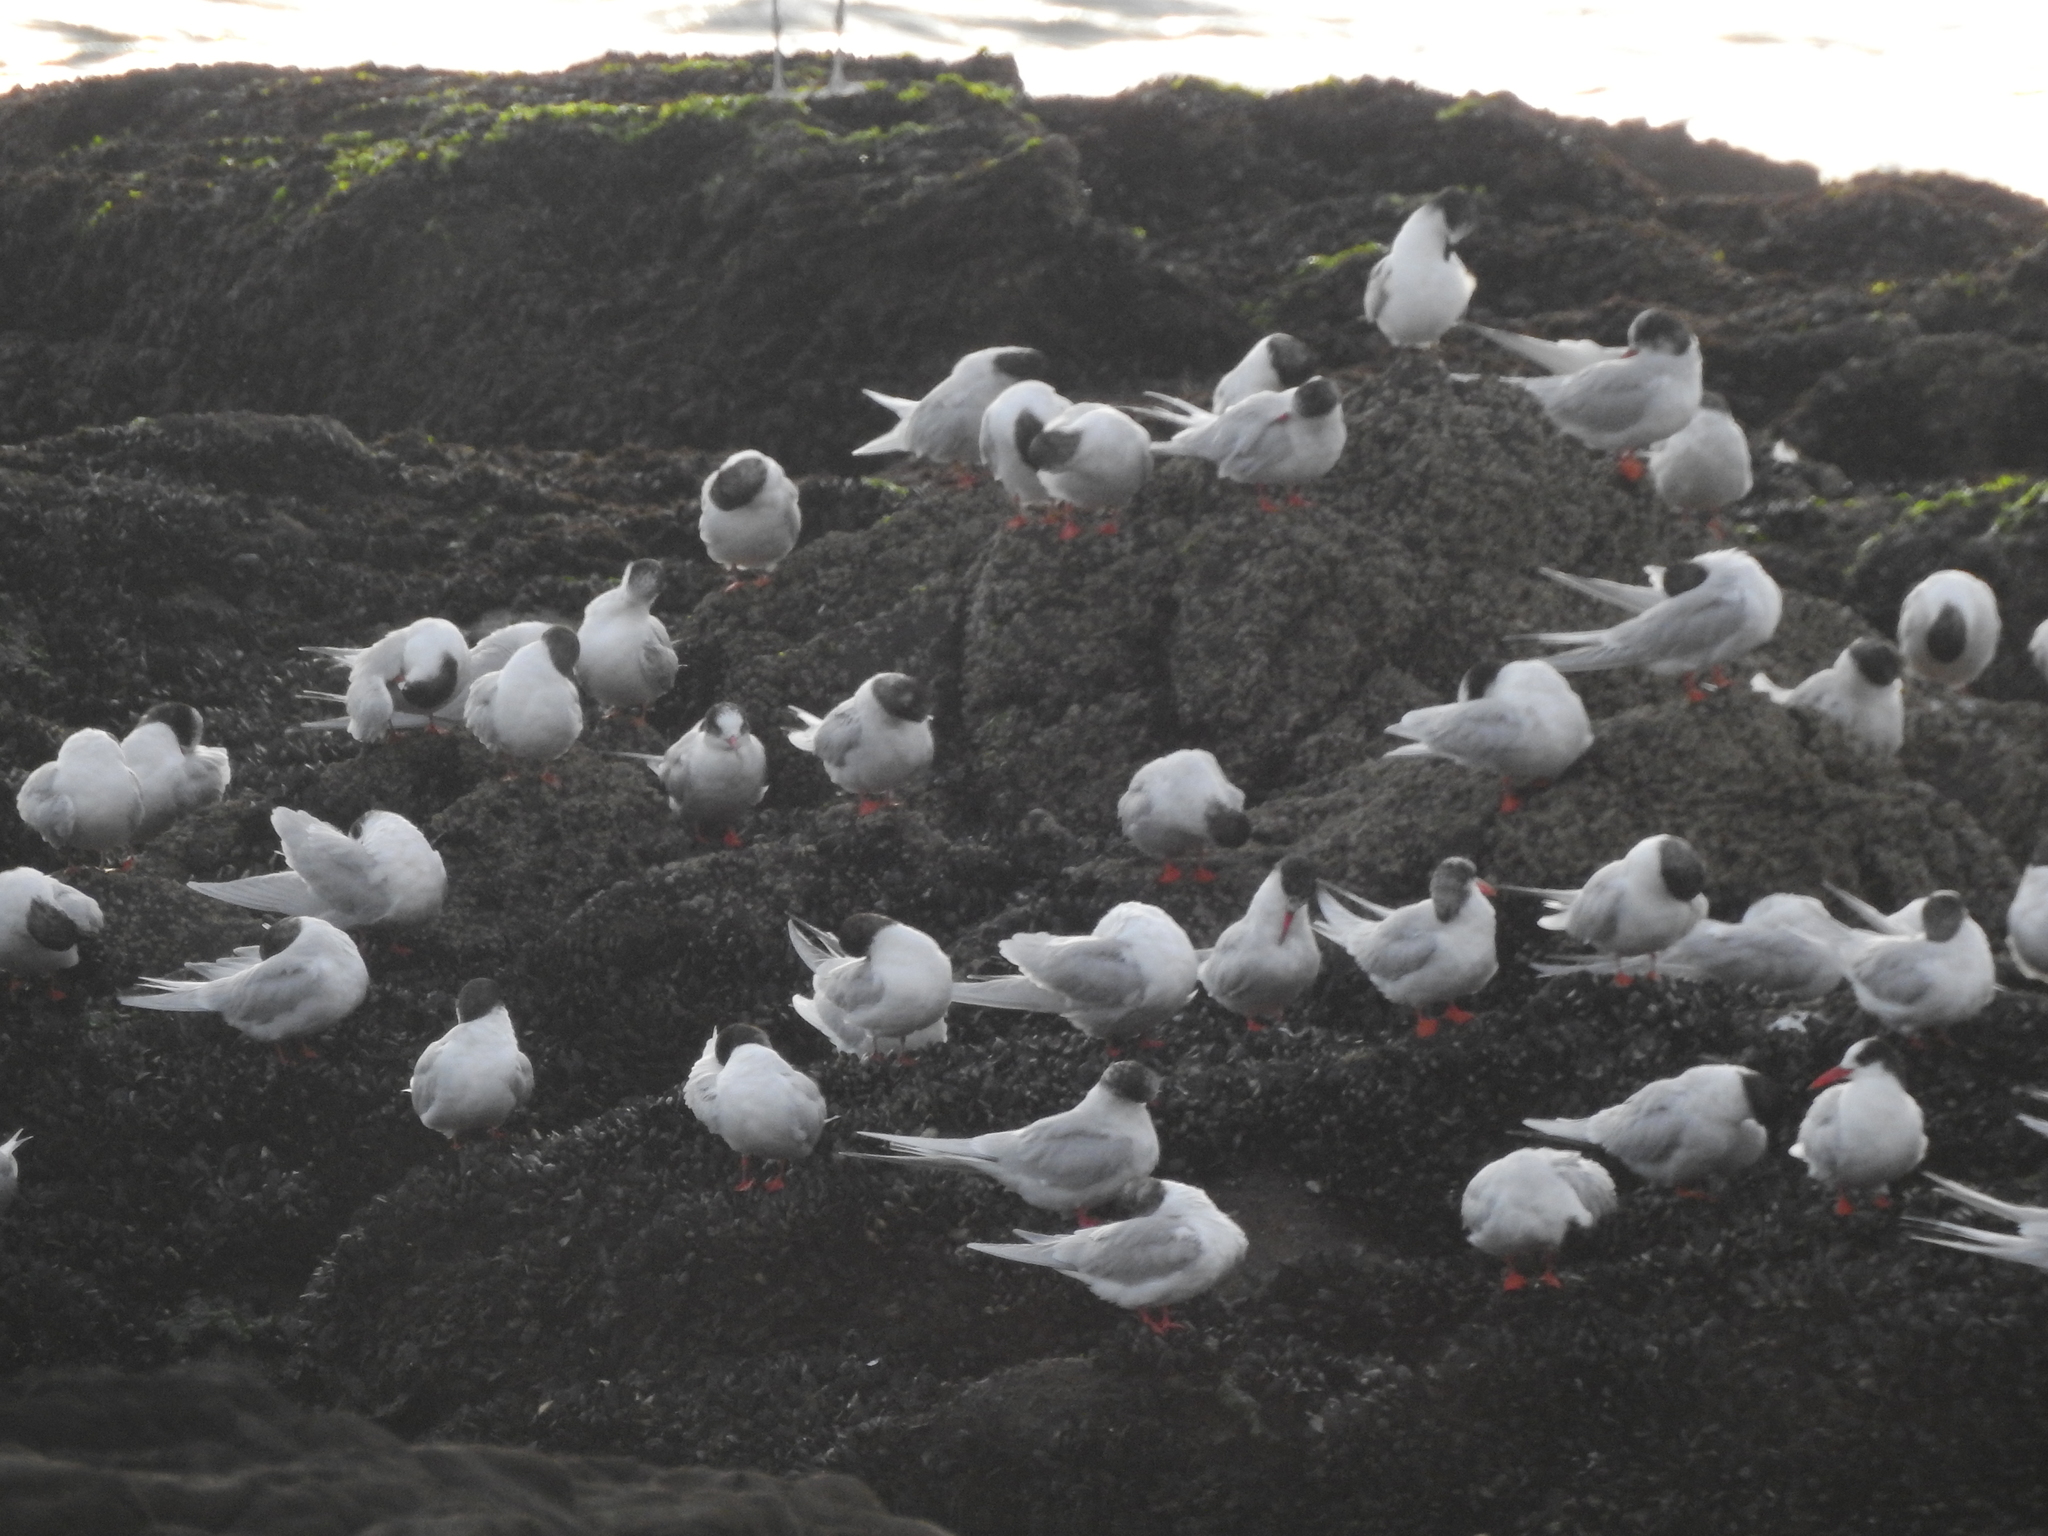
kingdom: Animalia
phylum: Chordata
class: Aves
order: Charadriiformes
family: Laridae
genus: Sterna
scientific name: Sterna hirundinacea
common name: South american tern
